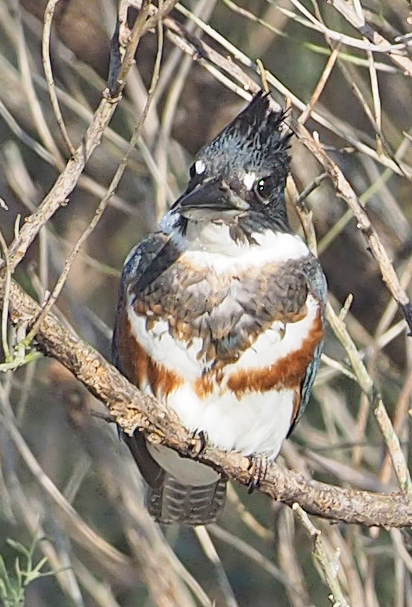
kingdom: Animalia
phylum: Chordata
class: Aves
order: Coraciiformes
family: Alcedinidae
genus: Megaceryle
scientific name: Megaceryle alcyon
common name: Belted kingfisher
